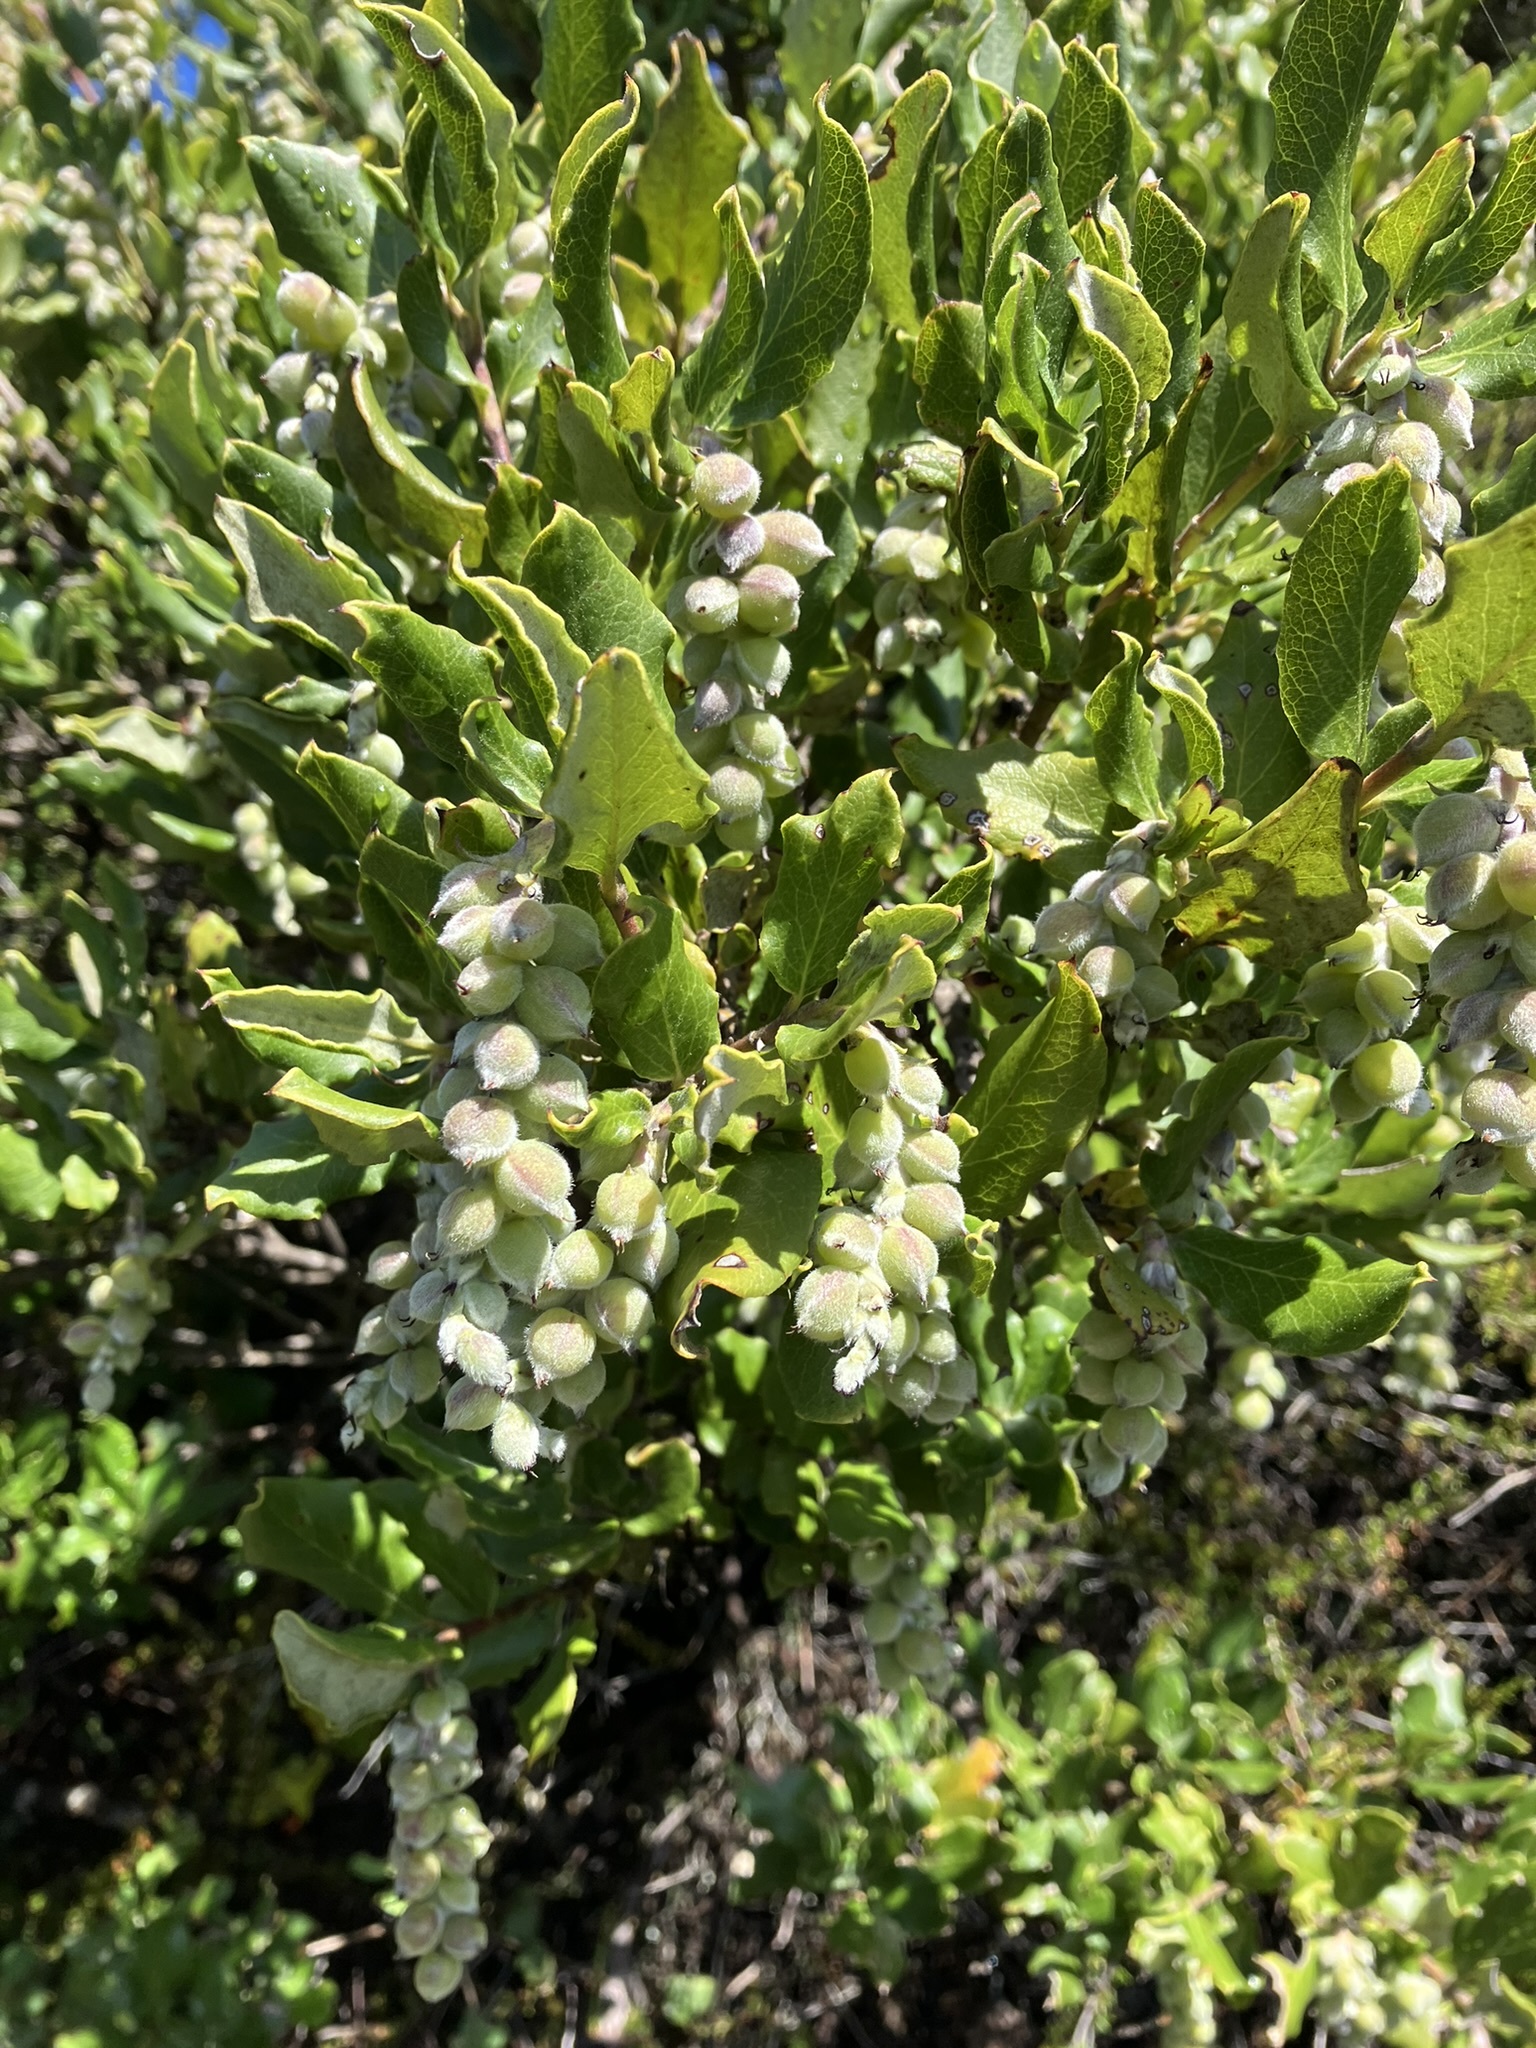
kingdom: Plantae
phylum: Tracheophyta
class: Magnoliopsida
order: Garryales
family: Garryaceae
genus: Garrya
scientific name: Garrya elliptica
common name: Silk-tassel
